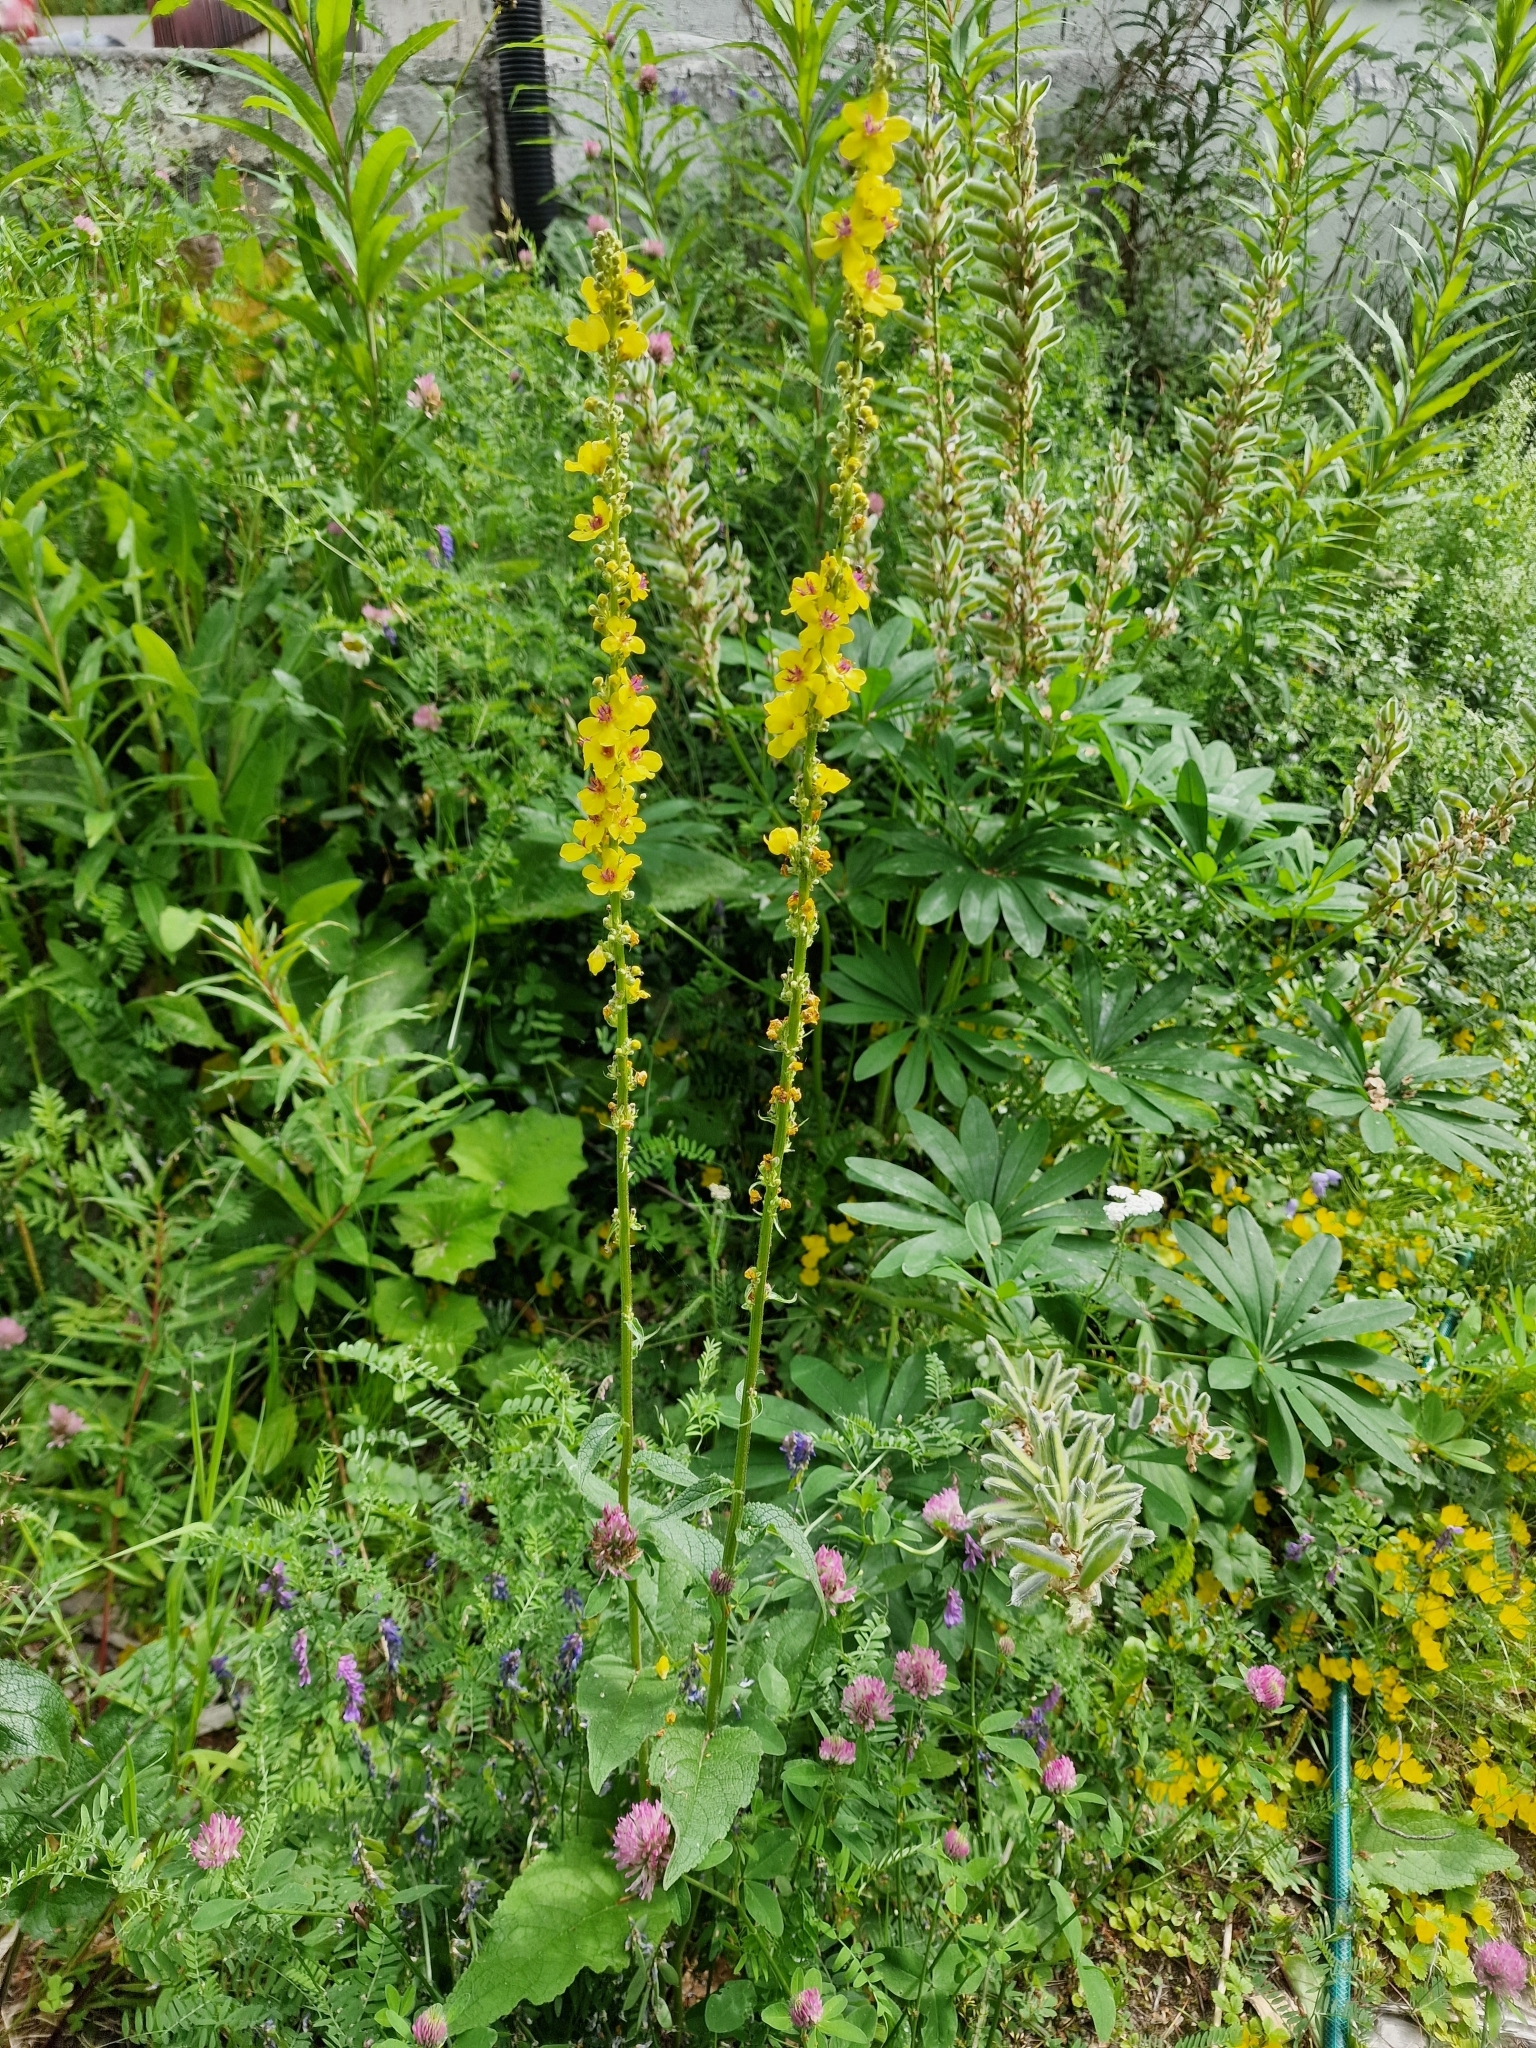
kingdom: Plantae
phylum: Tracheophyta
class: Magnoliopsida
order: Lamiales
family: Scrophulariaceae
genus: Verbascum
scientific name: Verbascum nigrum
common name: Dark mullein
